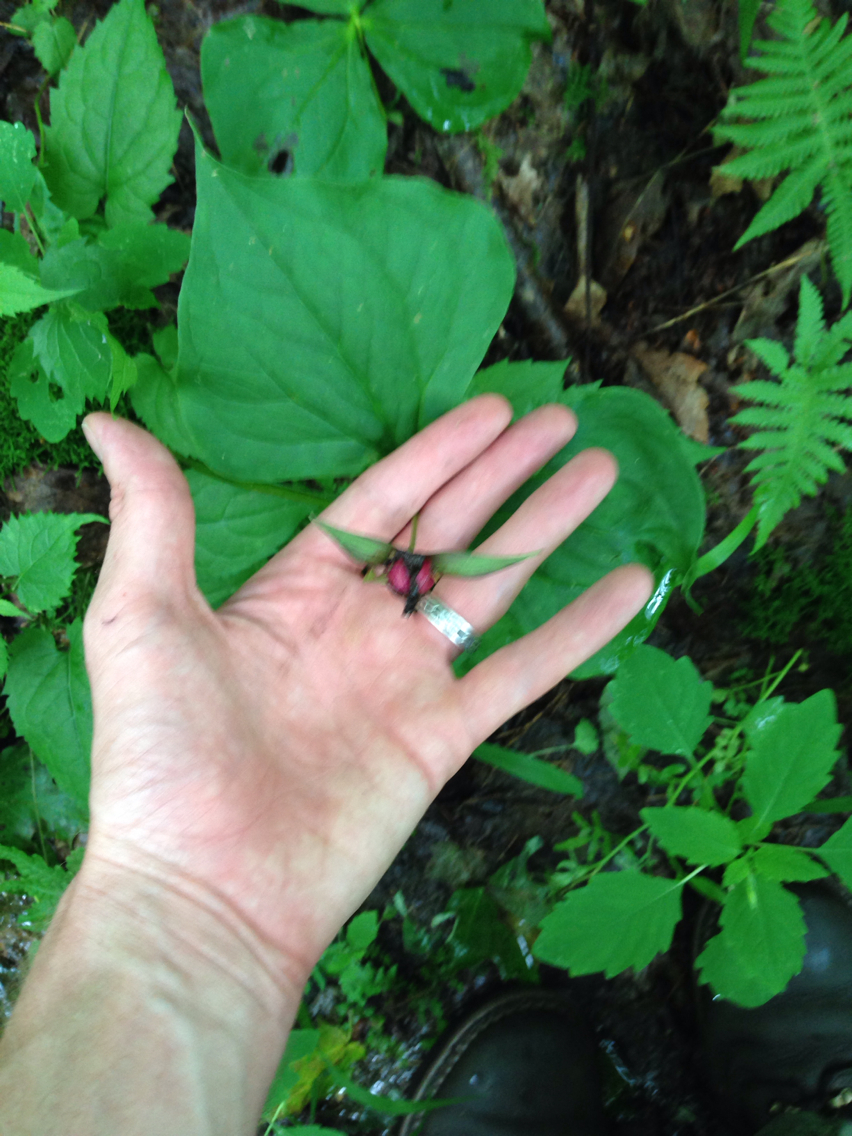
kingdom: Plantae
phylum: Tracheophyta
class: Liliopsida
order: Liliales
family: Melanthiaceae
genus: Trillium
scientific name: Trillium erectum
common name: Purple trillium
